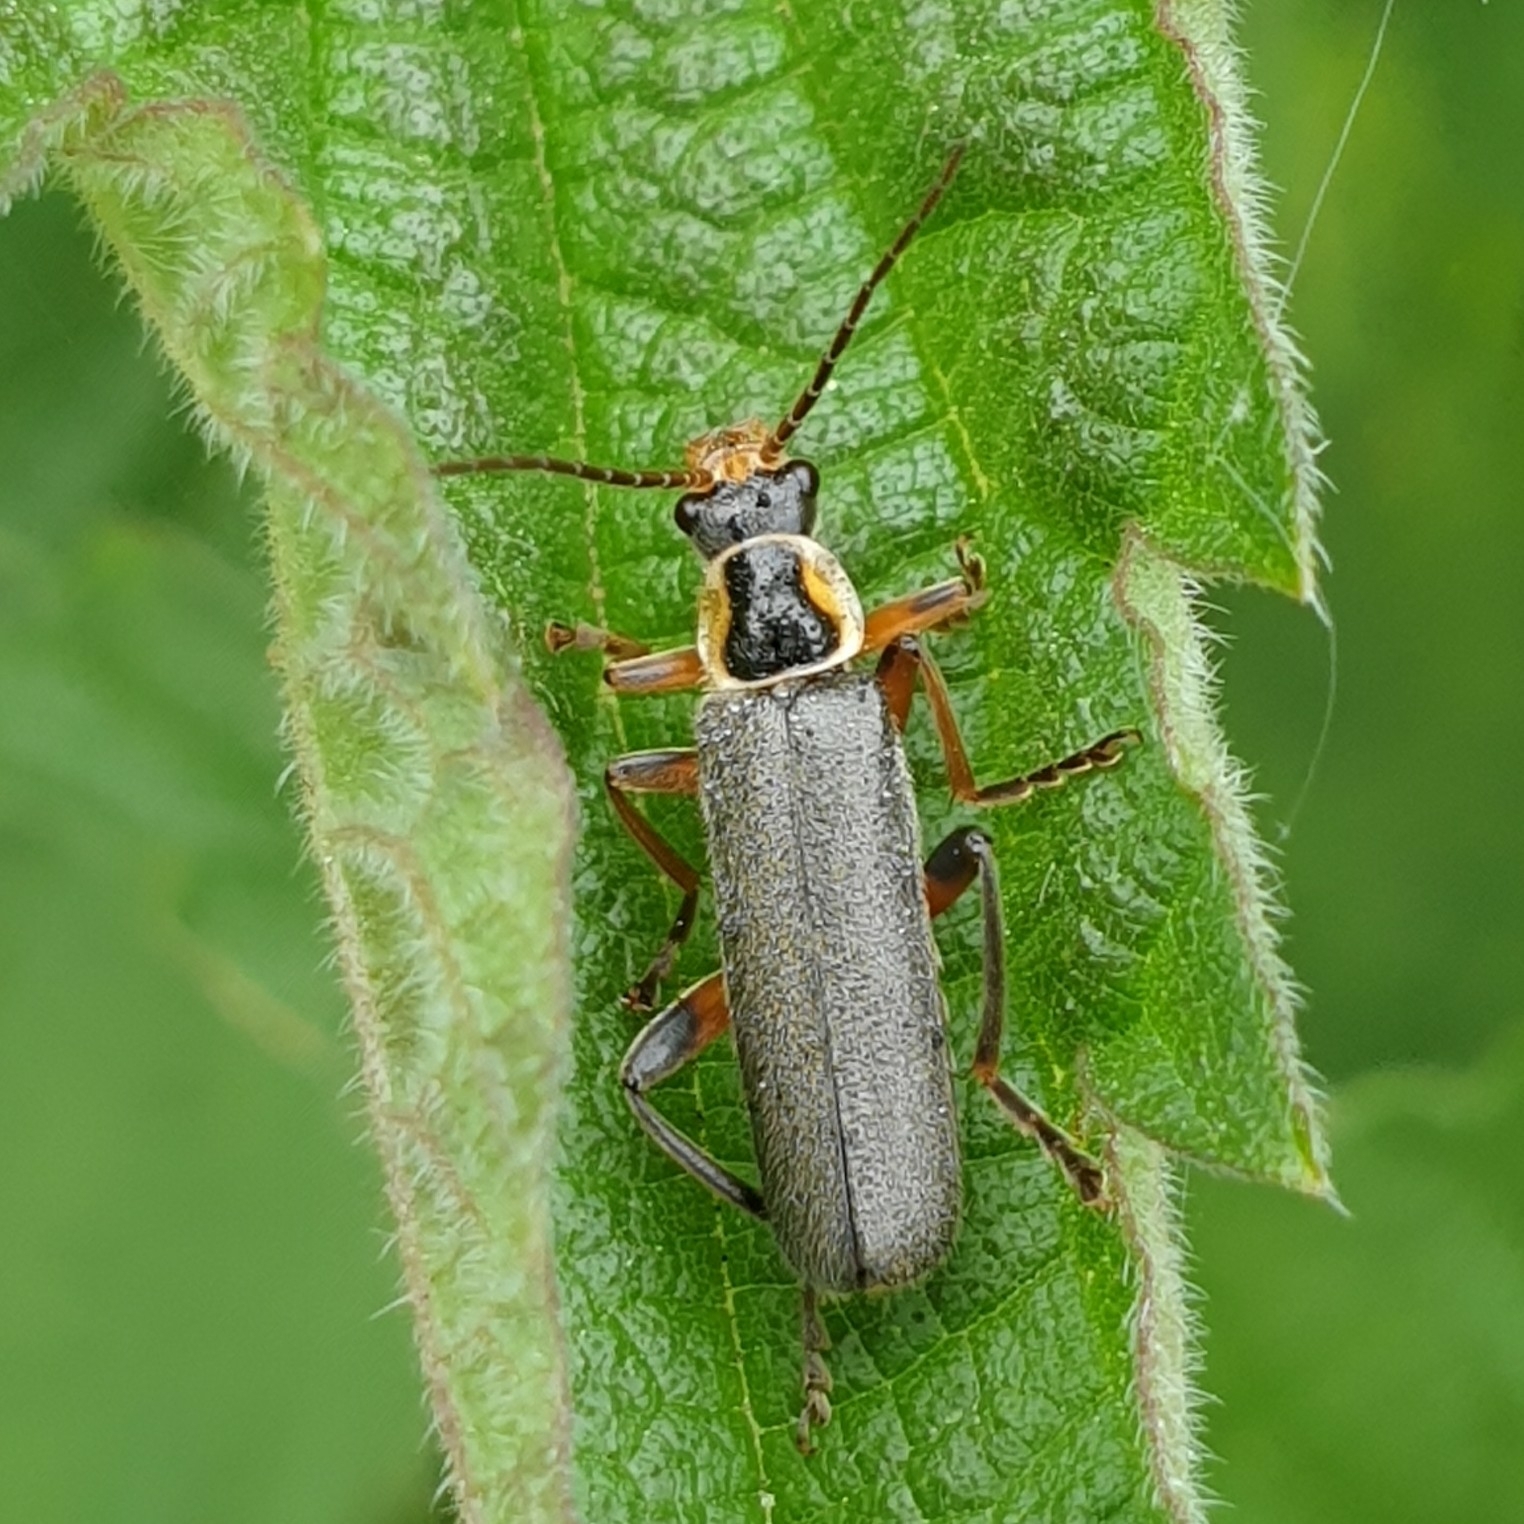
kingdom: Animalia
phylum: Arthropoda
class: Insecta
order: Coleoptera
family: Cantharidae
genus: Cantharis
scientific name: Cantharis nigricans
